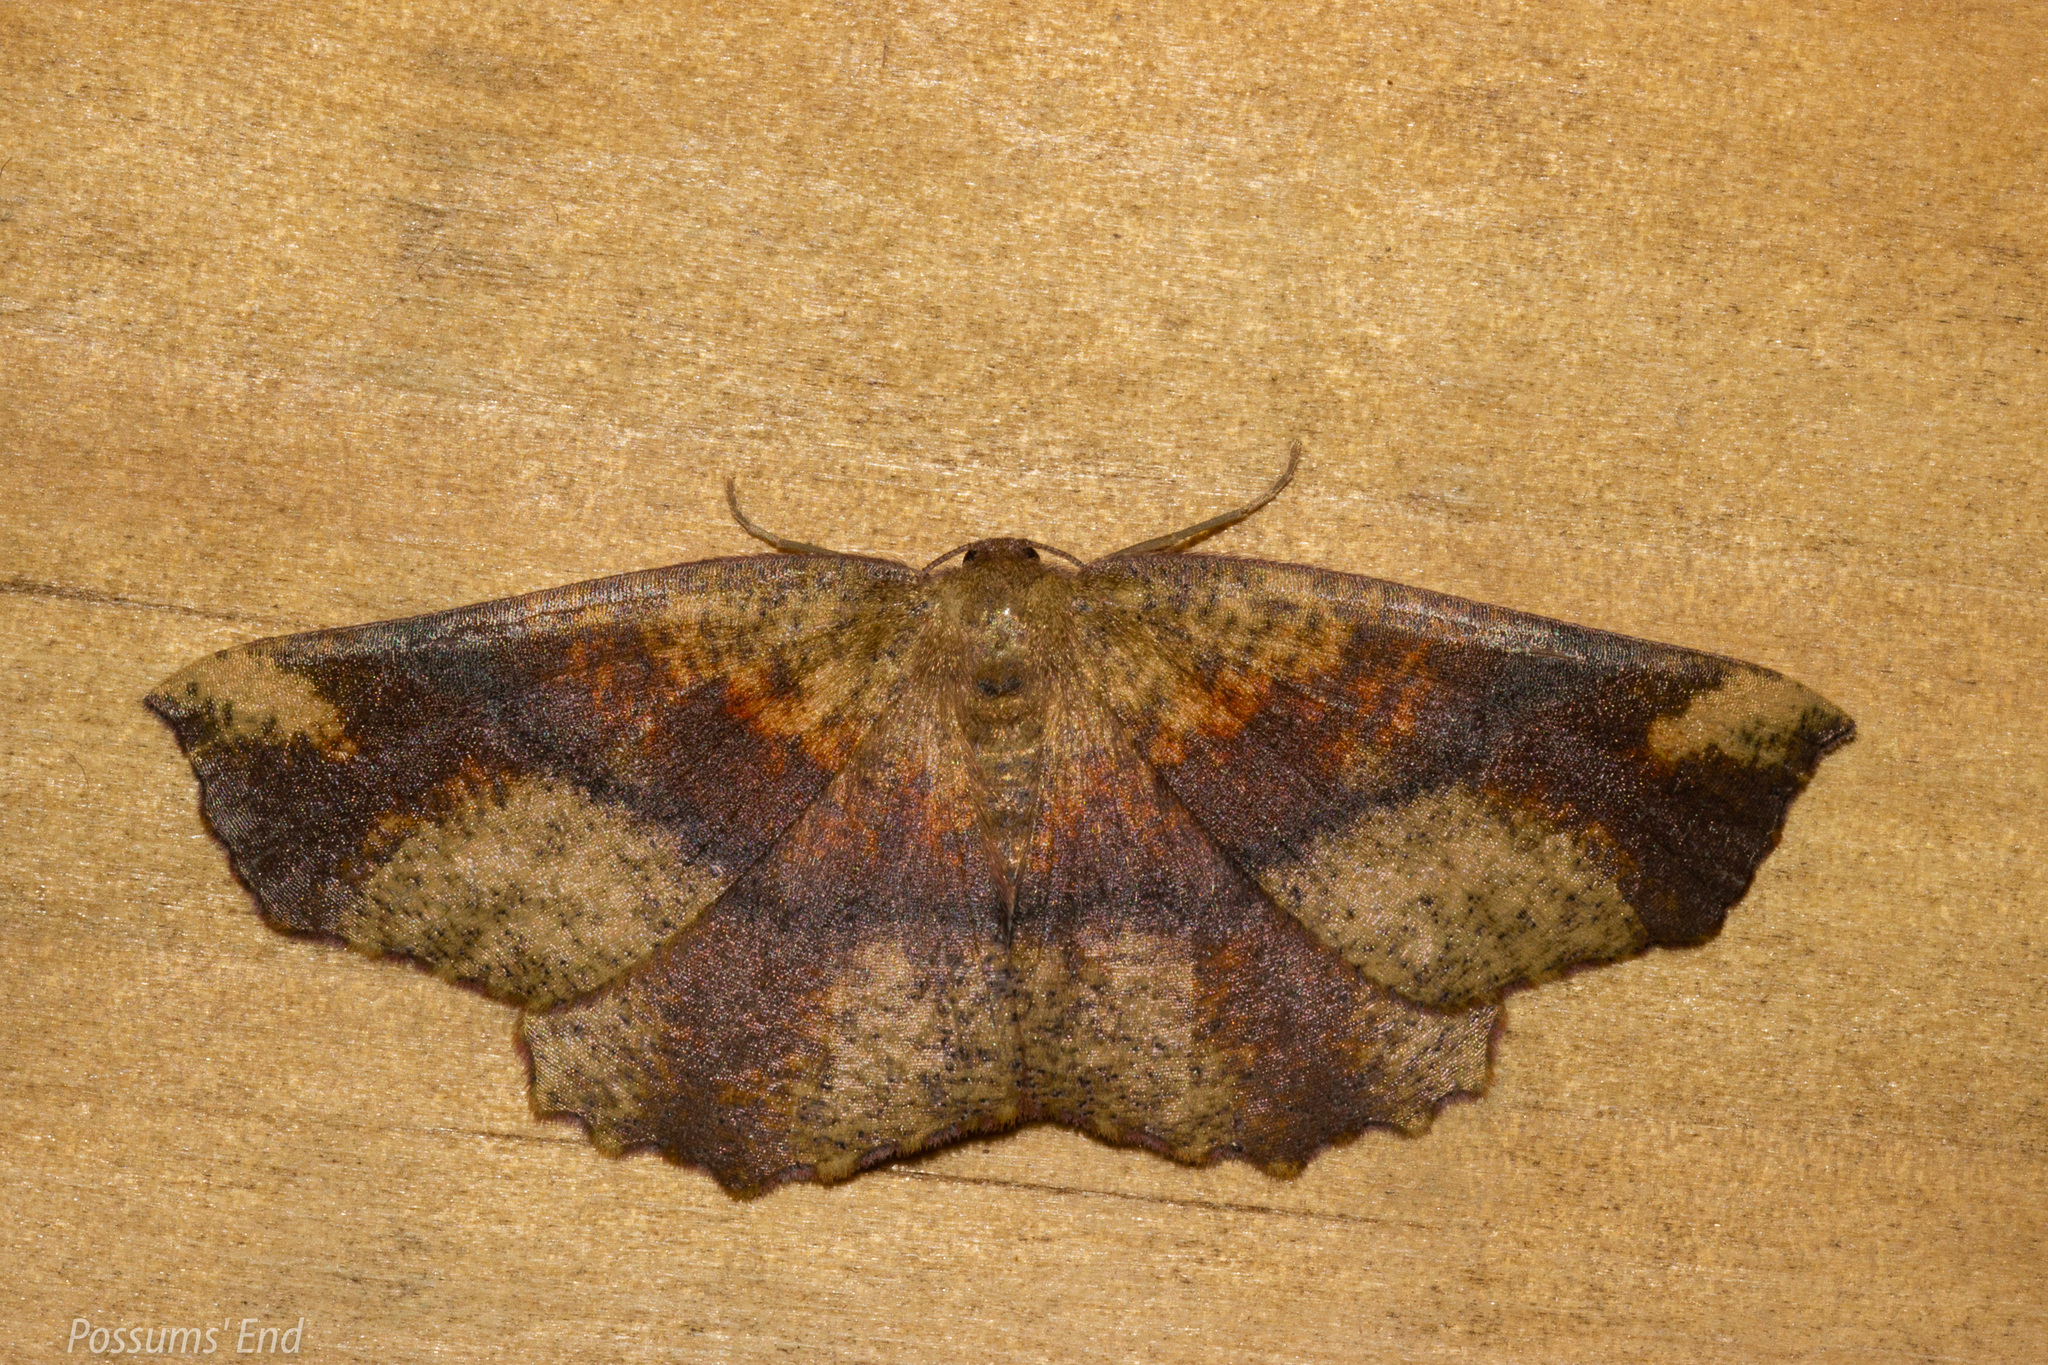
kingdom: Animalia
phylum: Arthropoda
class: Insecta
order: Lepidoptera
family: Geometridae
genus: Xyridacma
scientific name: Xyridacma ustaria
